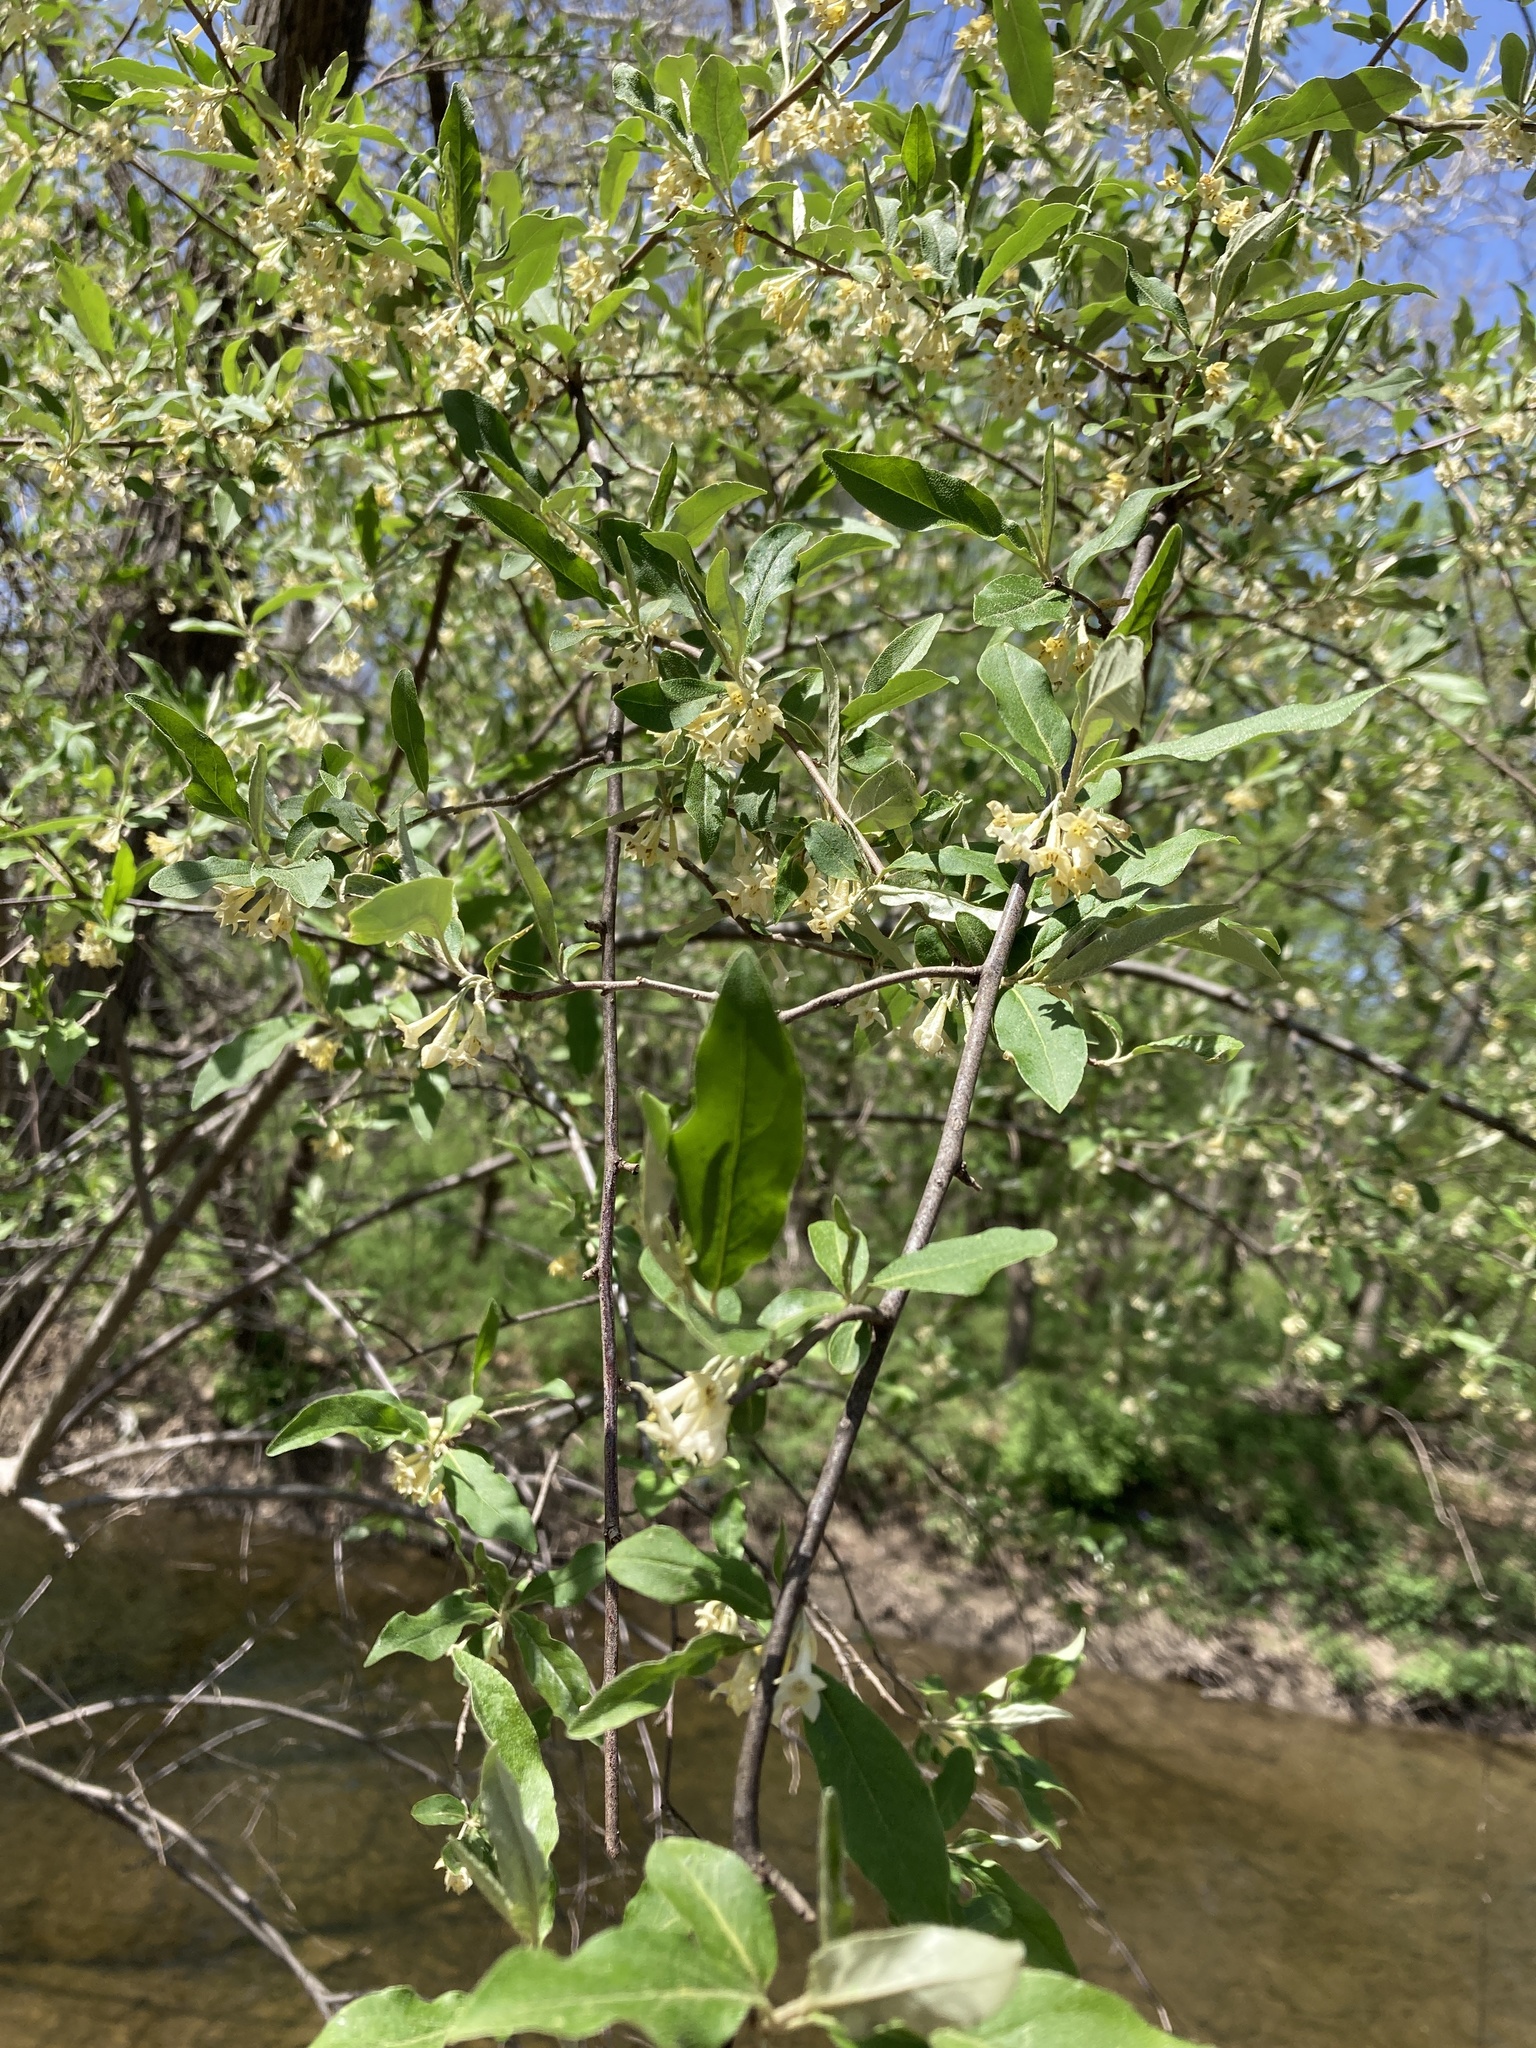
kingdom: Plantae
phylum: Tracheophyta
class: Magnoliopsida
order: Rosales
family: Elaeagnaceae
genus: Elaeagnus
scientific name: Elaeagnus umbellata
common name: Autumn olive
